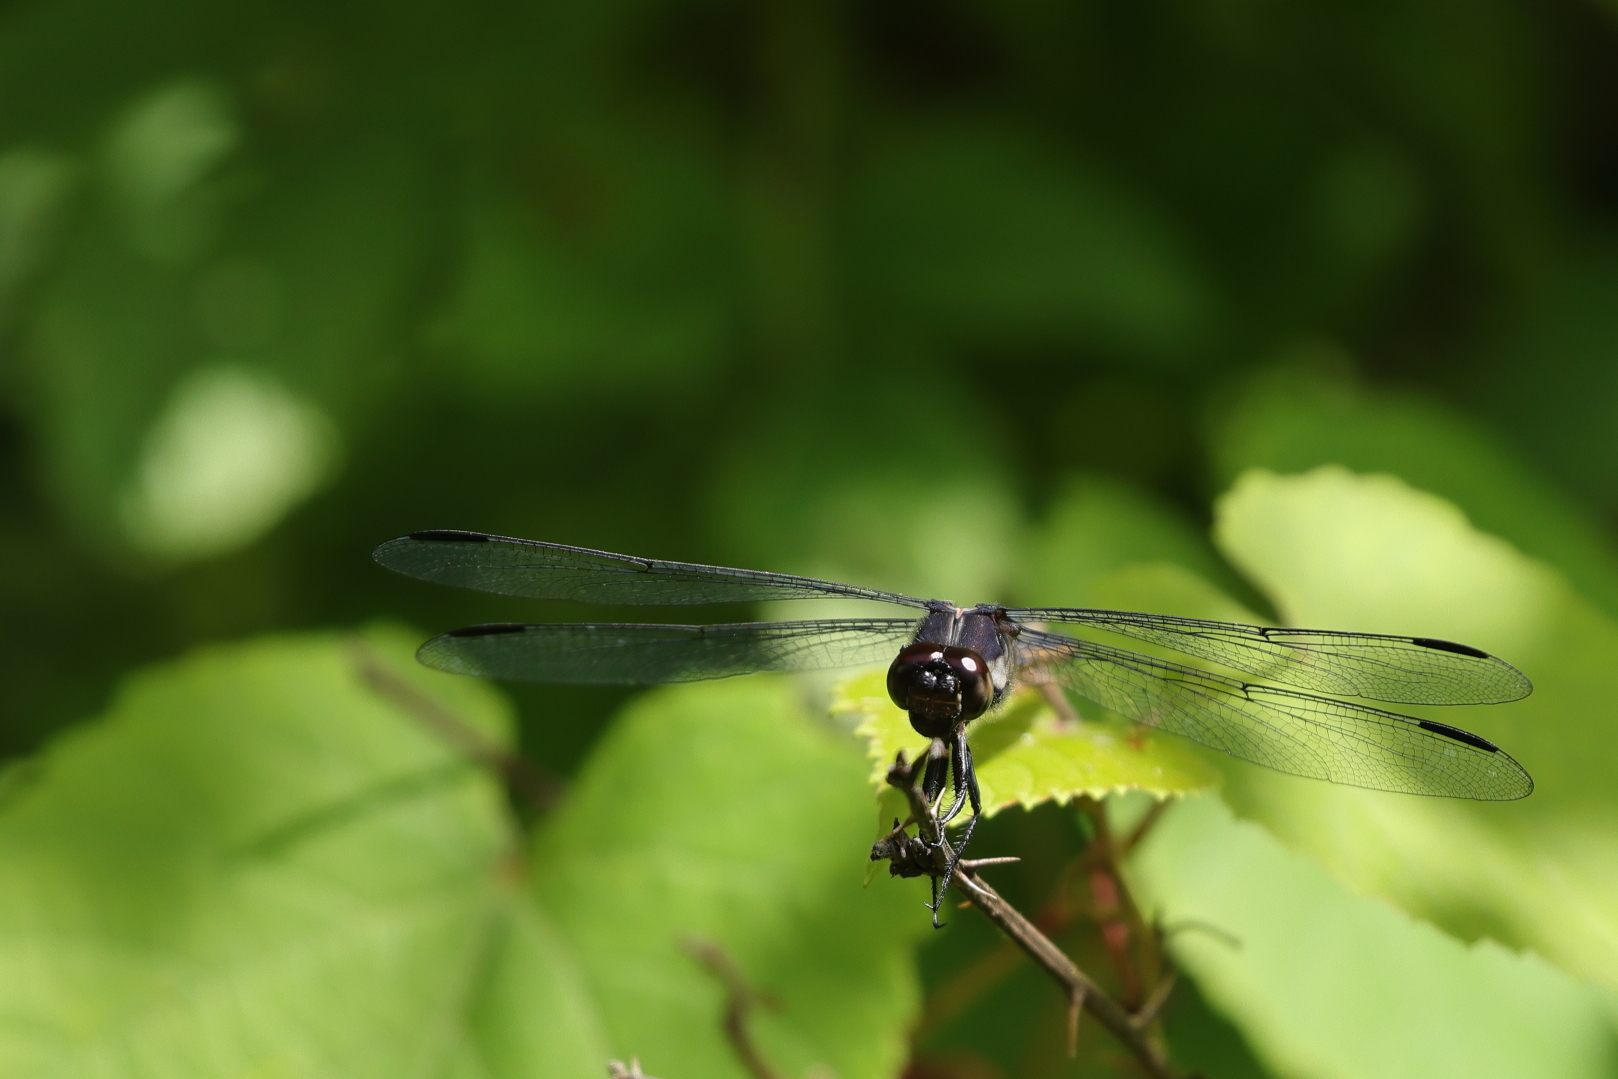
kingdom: Animalia
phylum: Arthropoda
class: Insecta
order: Odonata
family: Libellulidae
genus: Libellula
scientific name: Libellula incesta
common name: Slaty skimmer
